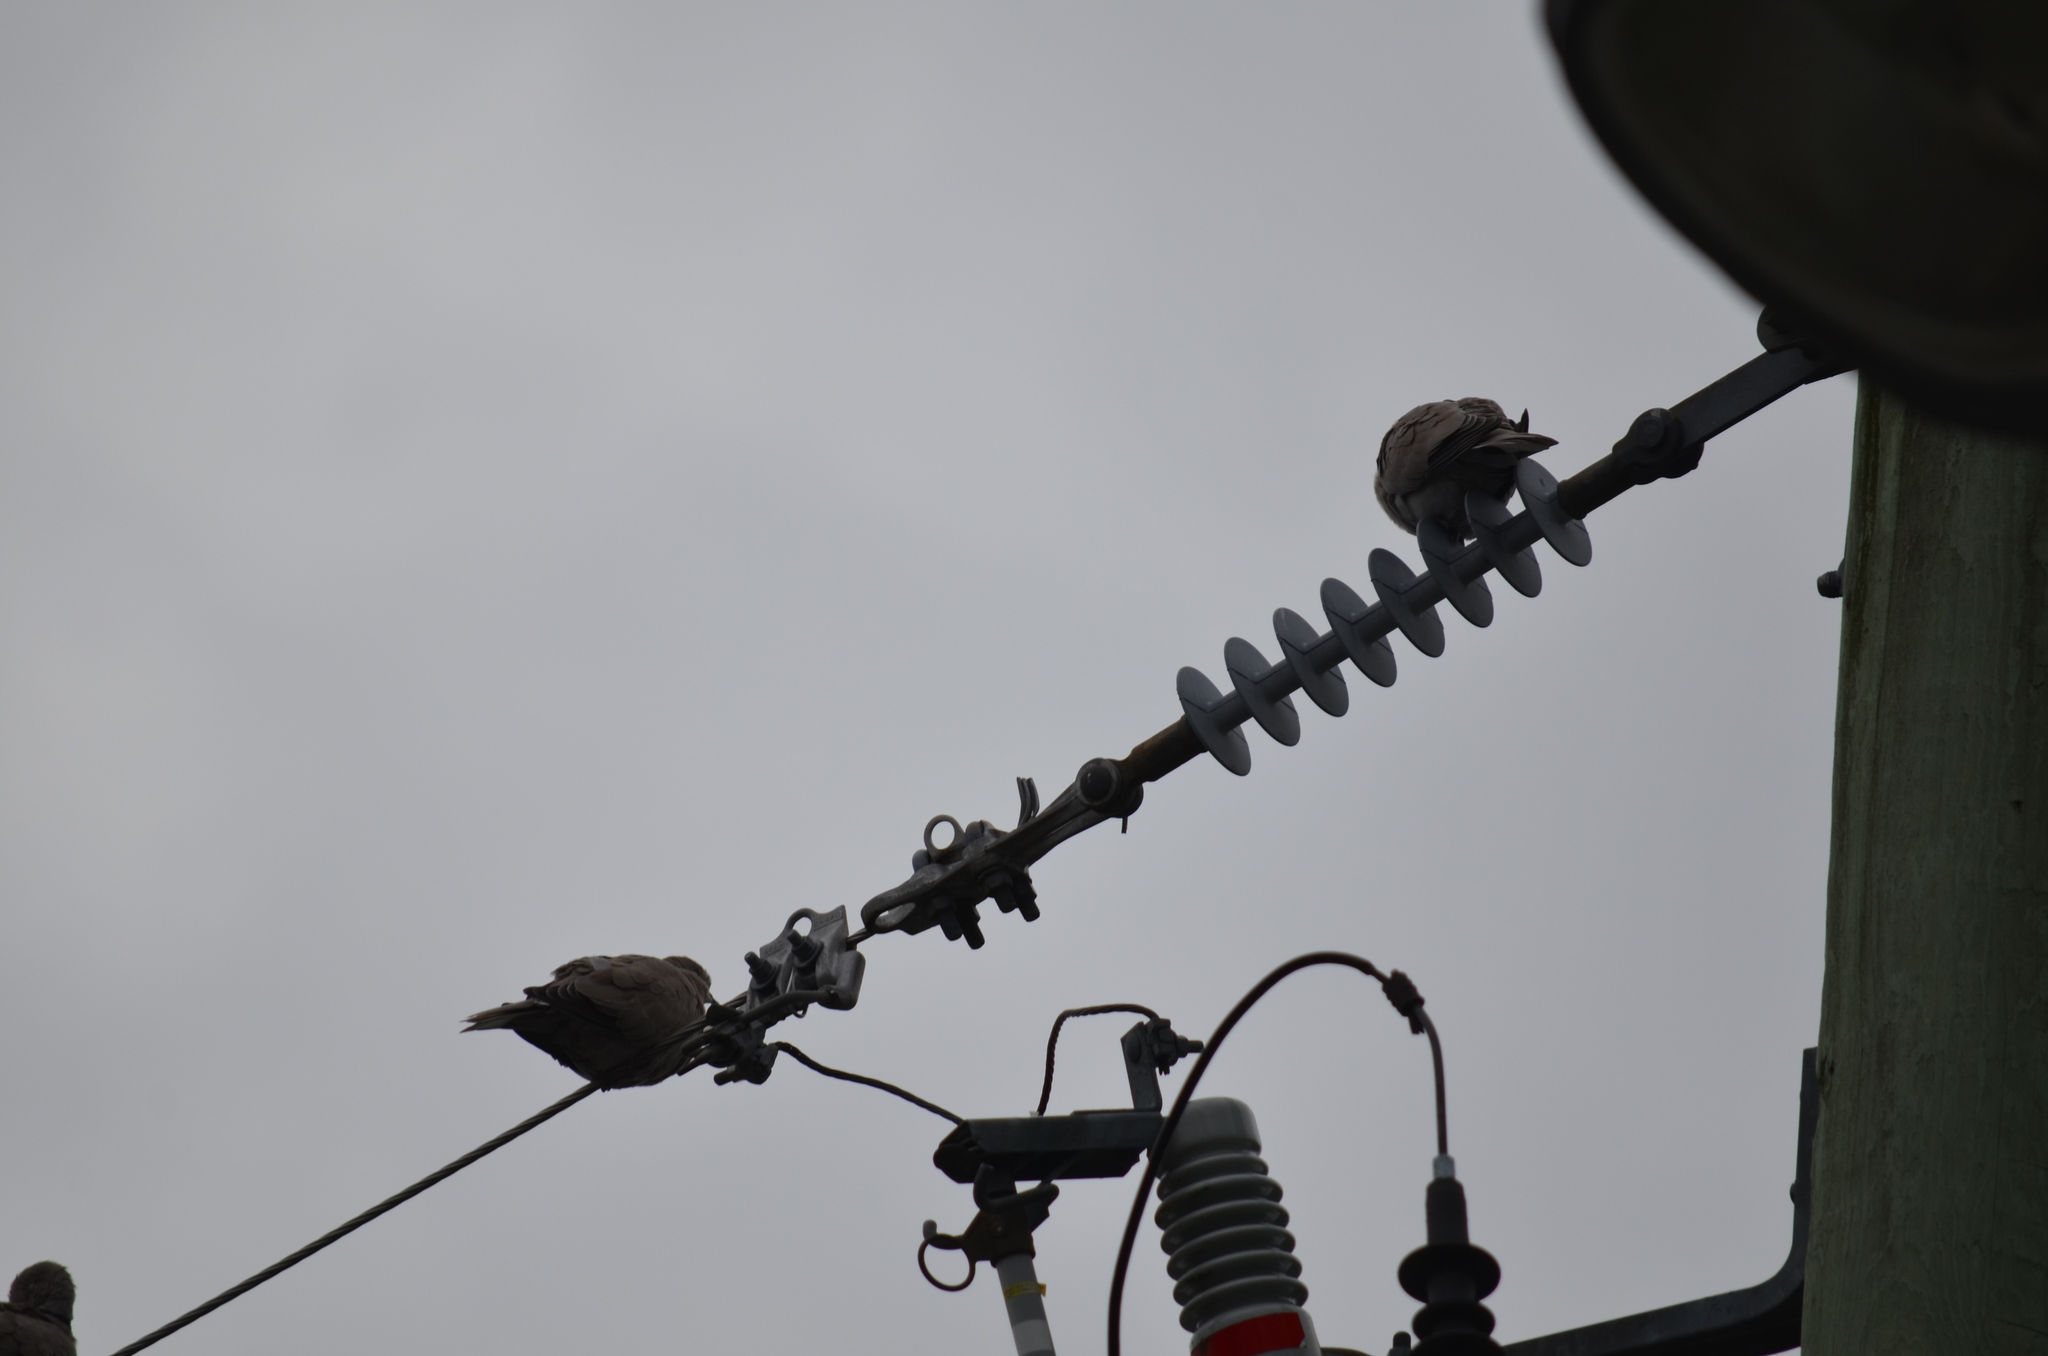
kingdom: Animalia
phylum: Chordata
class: Aves
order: Columbiformes
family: Columbidae
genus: Streptopelia
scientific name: Streptopelia decaocto
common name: Eurasian collared dove
